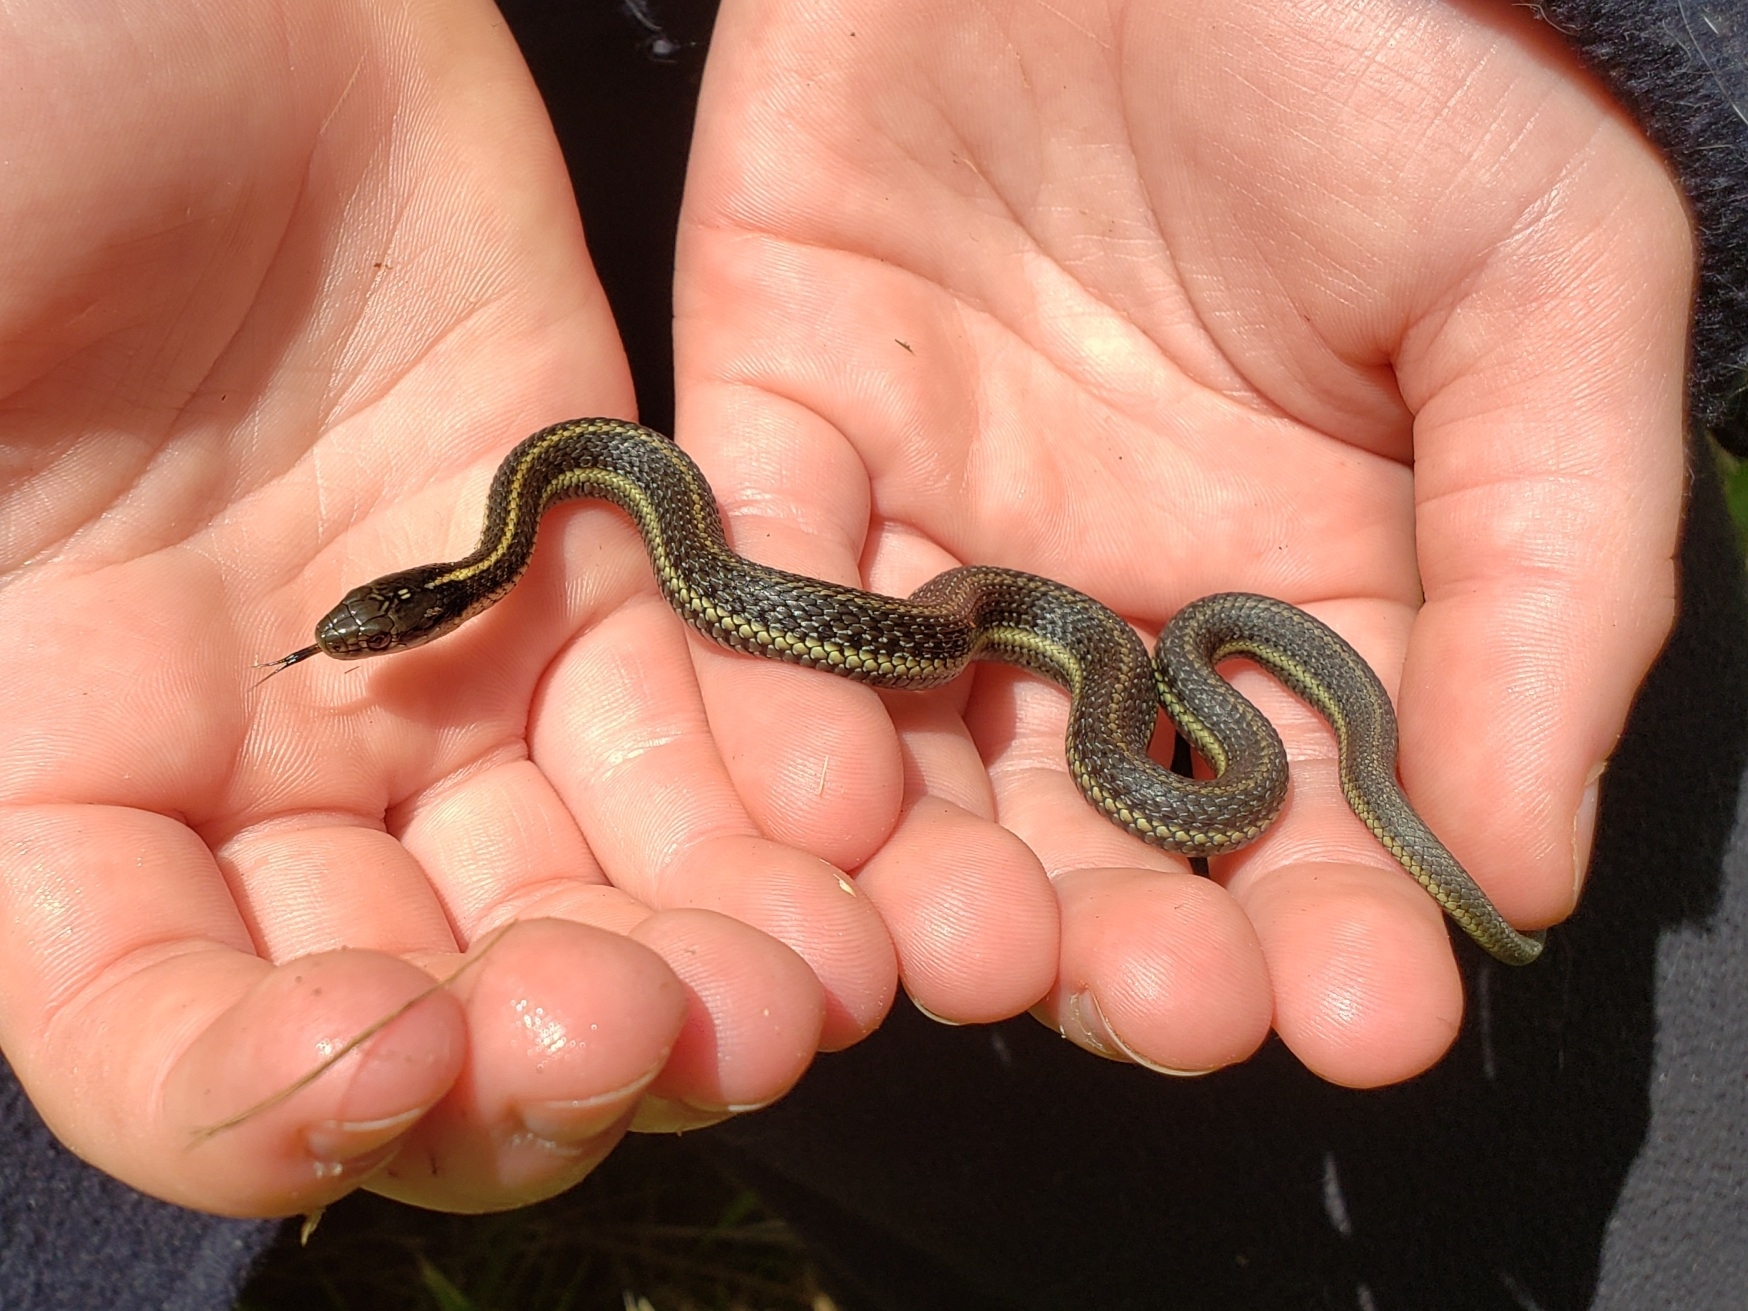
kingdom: Animalia
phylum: Chordata
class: Squamata
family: Colubridae
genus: Thamnophis
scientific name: Thamnophis ordinoides
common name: Northwestern garter snake
